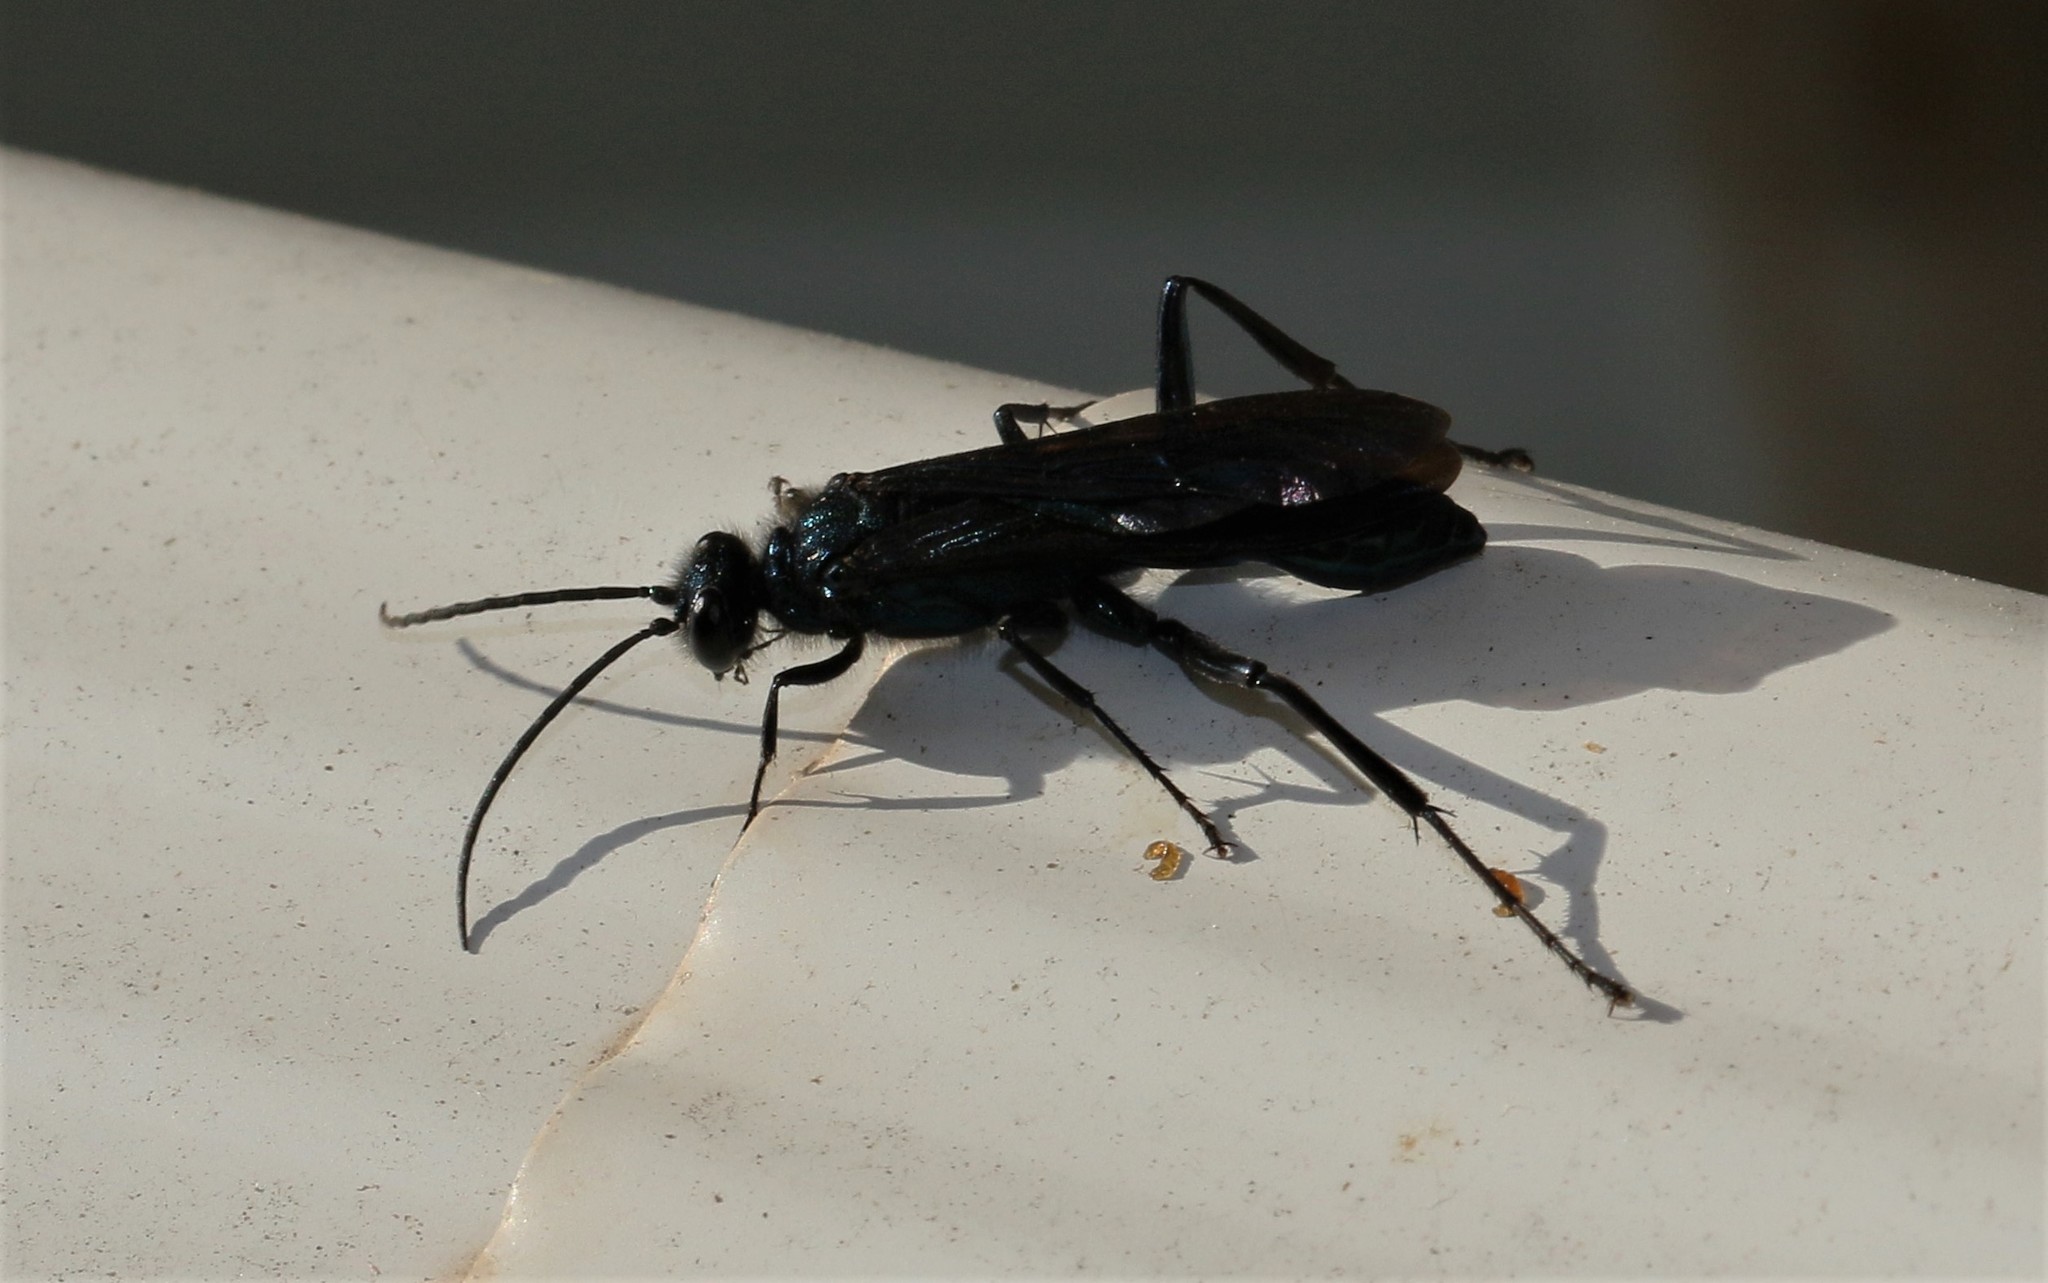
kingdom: Animalia
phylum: Arthropoda
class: Insecta
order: Hymenoptera
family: Sphecidae
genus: Chalybion
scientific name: Chalybion californicum
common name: Mud dauber
